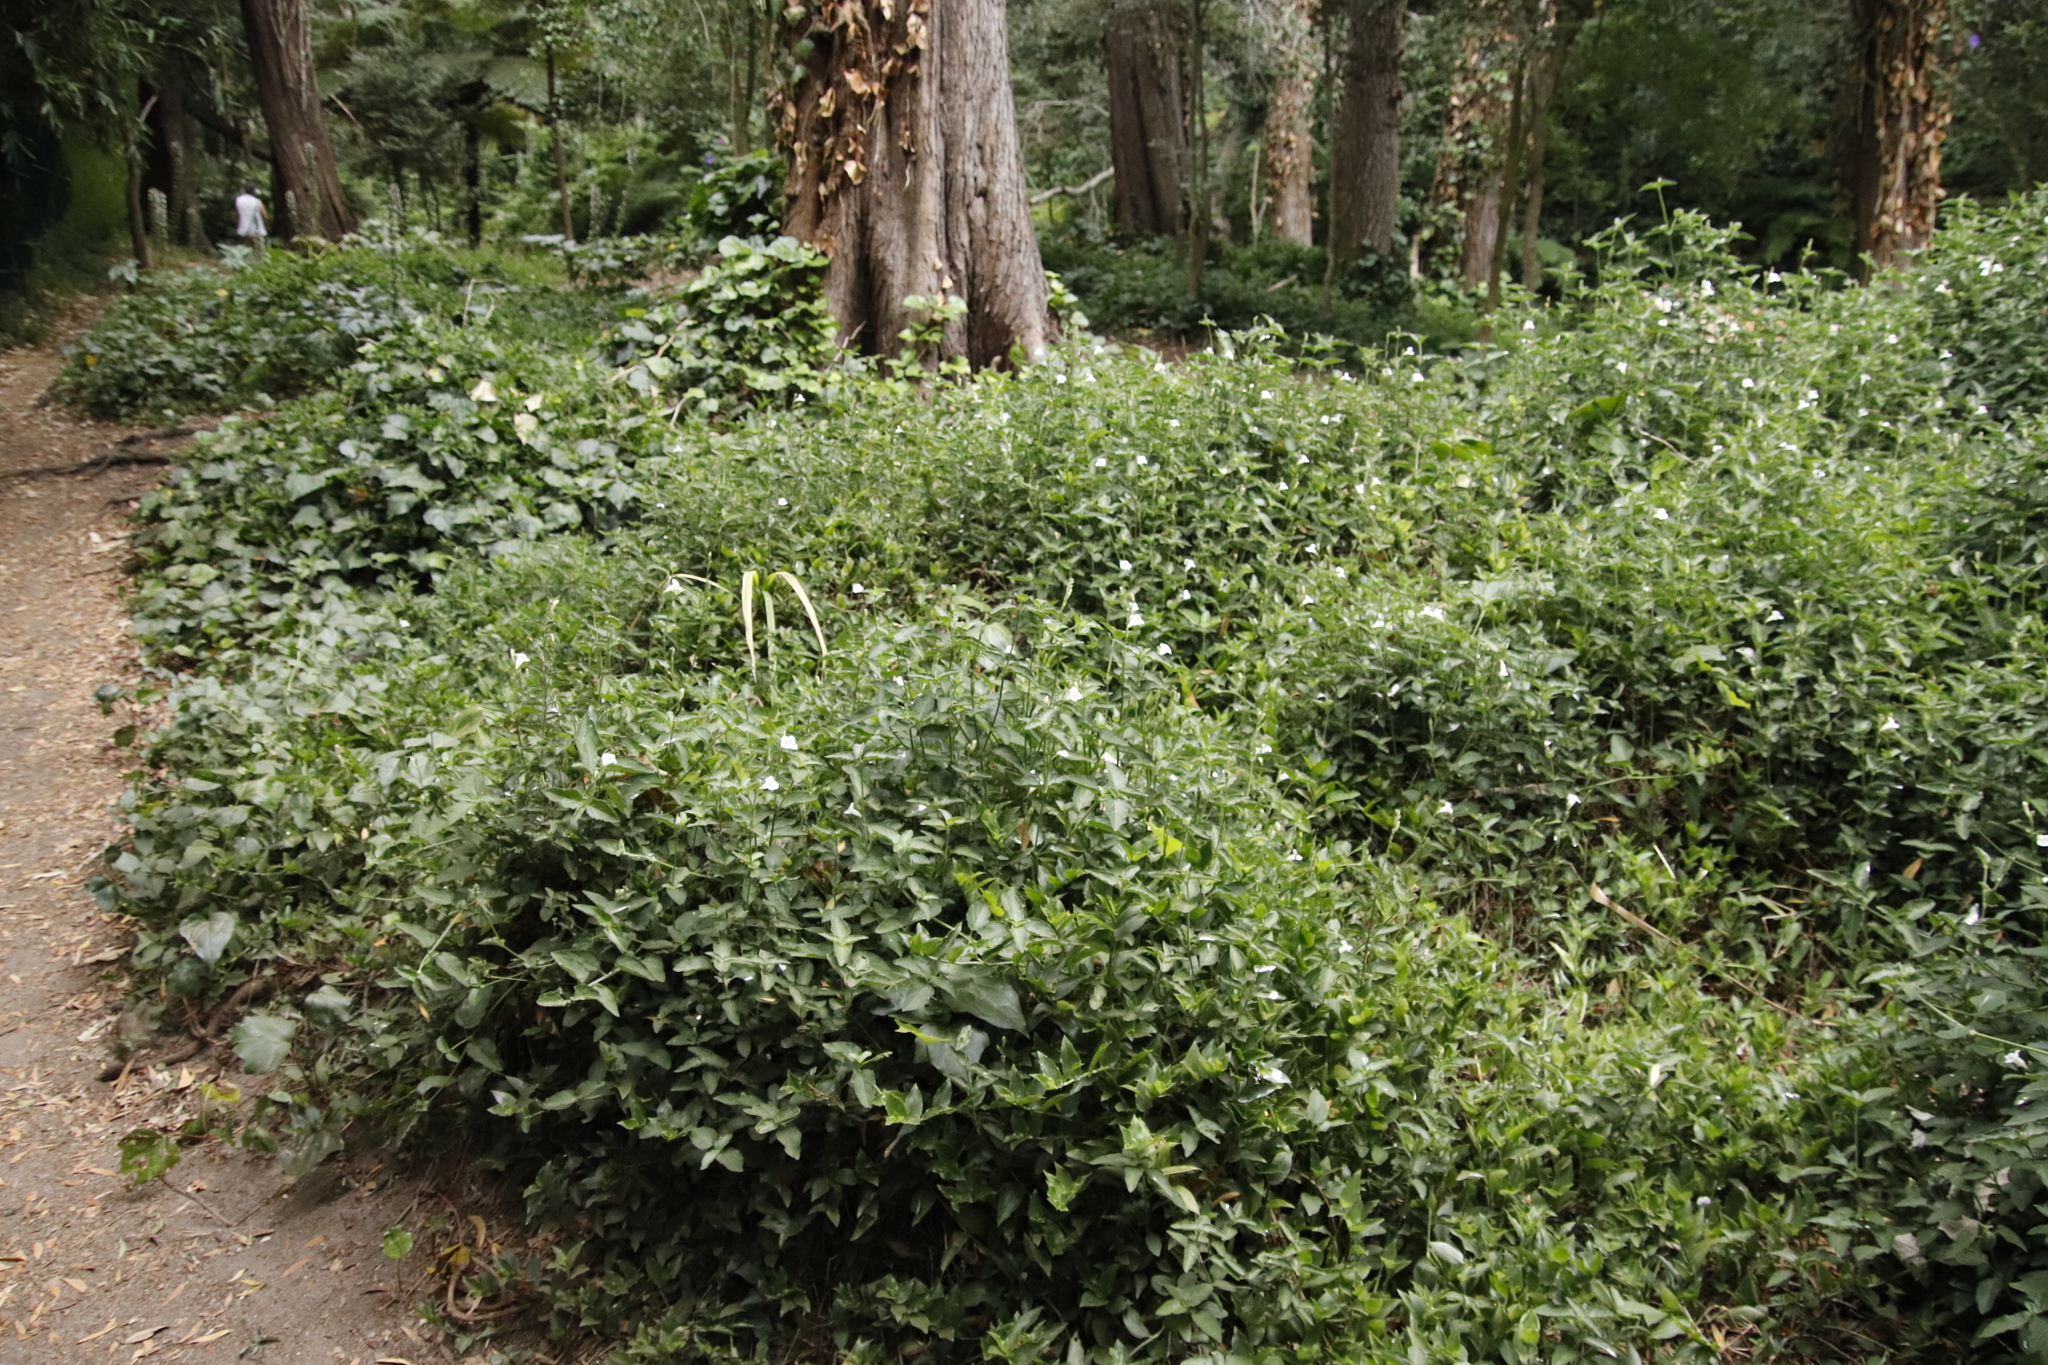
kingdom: Plantae
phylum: Tracheophyta
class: Magnoliopsida
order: Lamiales
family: Acanthaceae
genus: Asystasia
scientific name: Asystasia intrusa
